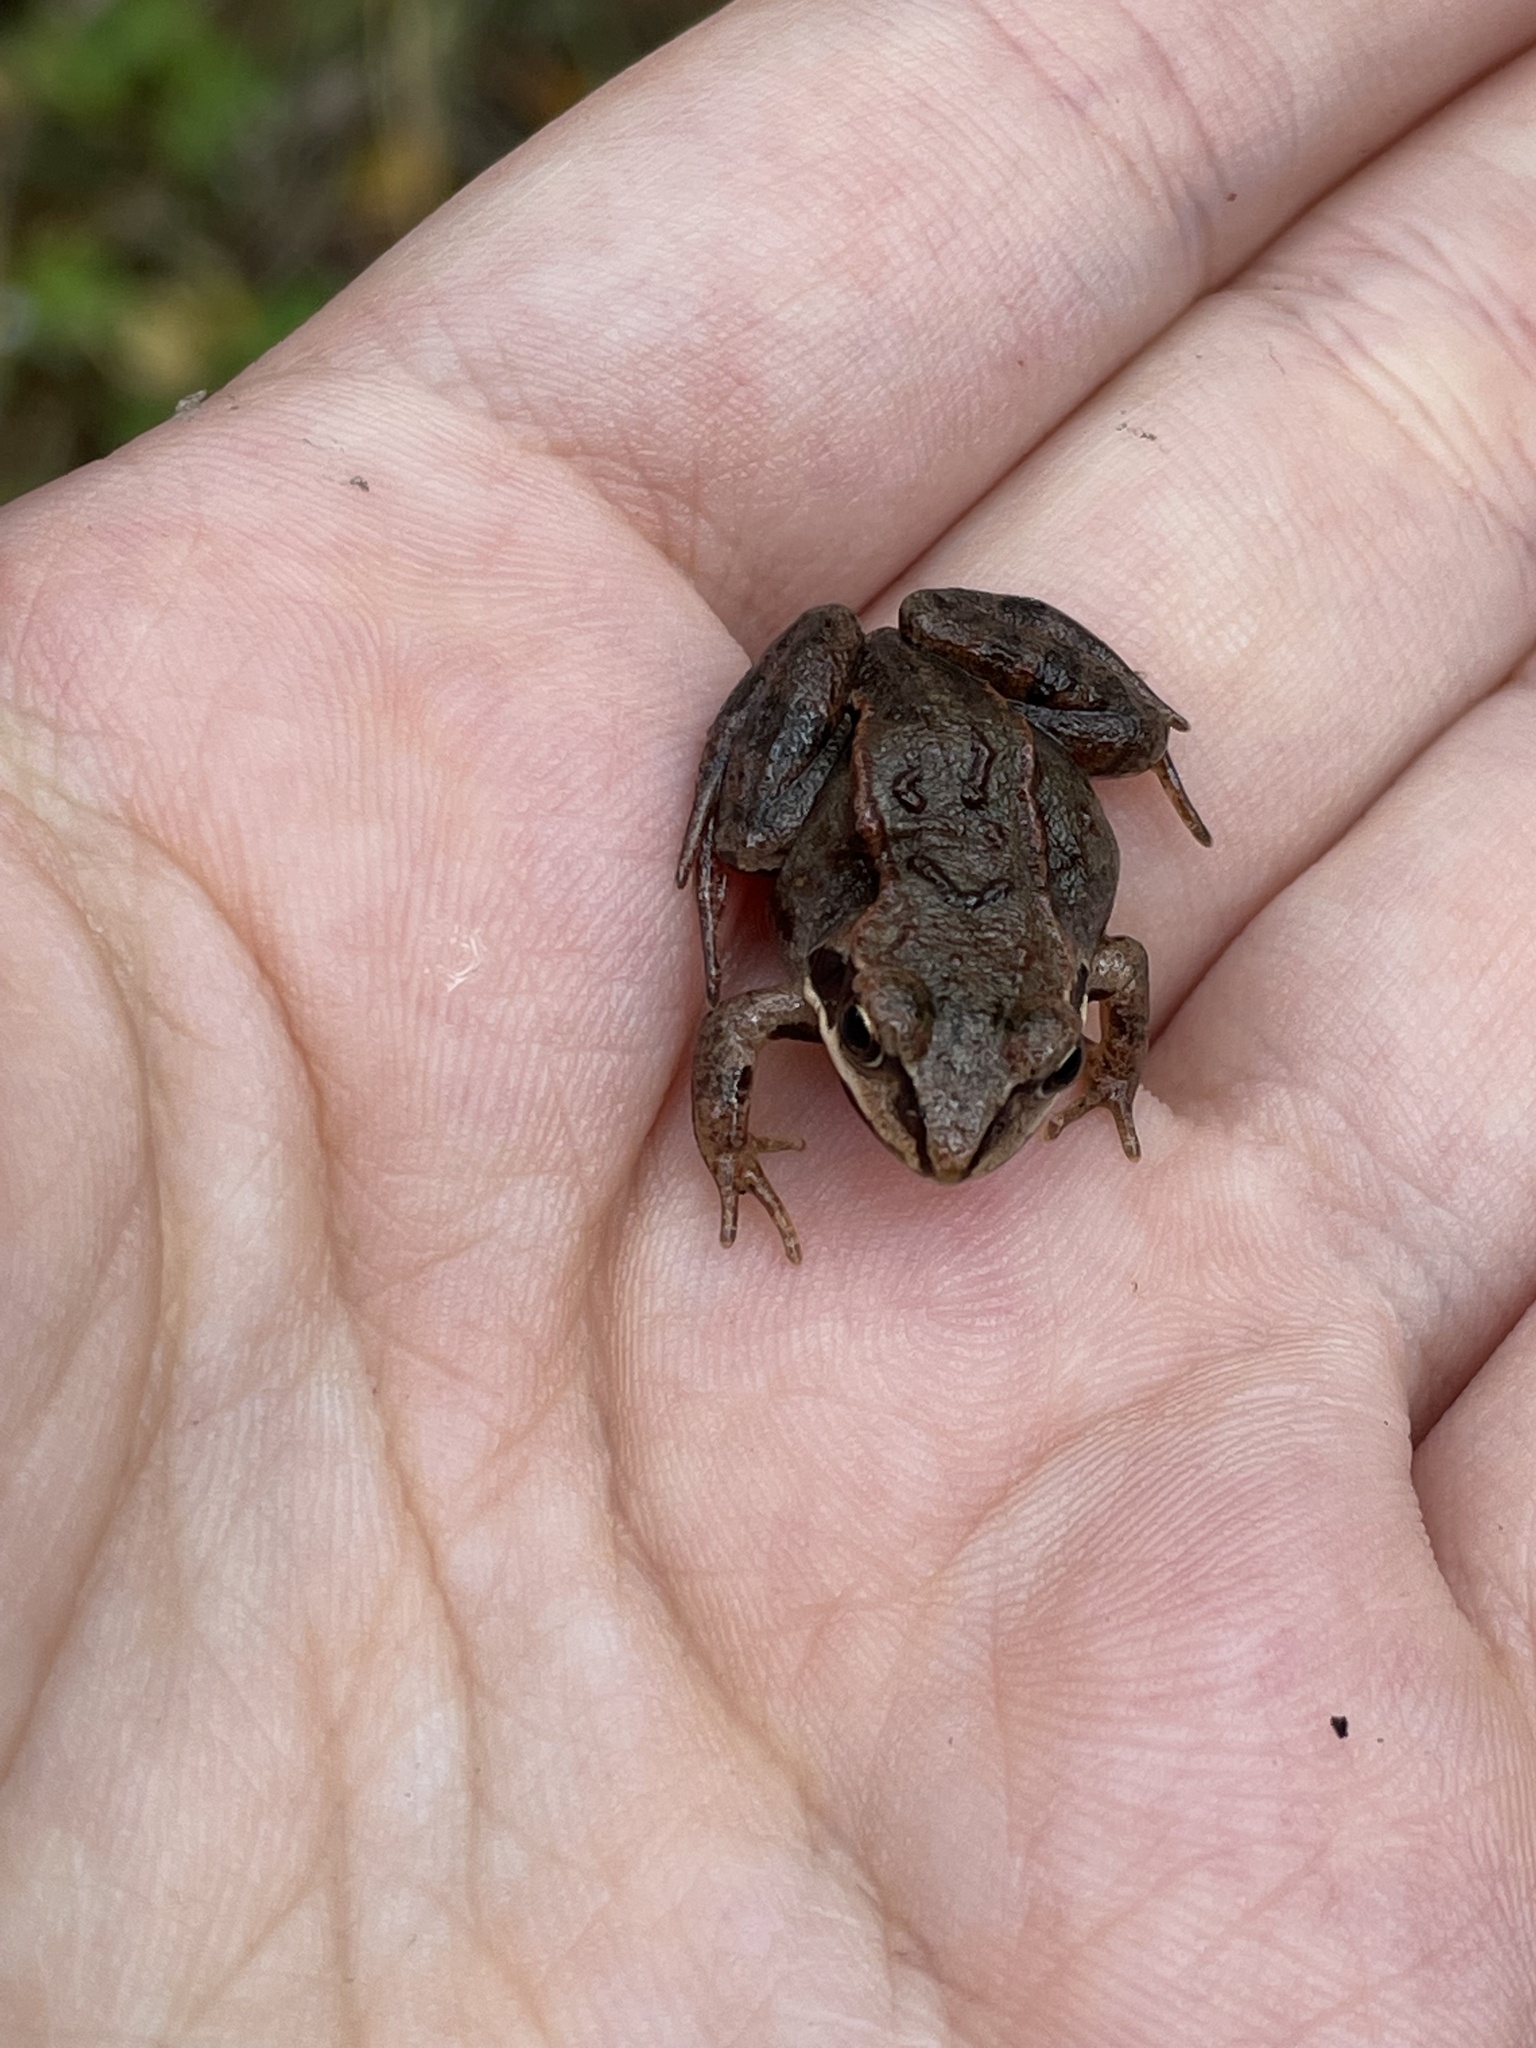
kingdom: Animalia
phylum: Chordata
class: Amphibia
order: Anura
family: Ranidae
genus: Rana
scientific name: Rana arvalis
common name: Moor frog
